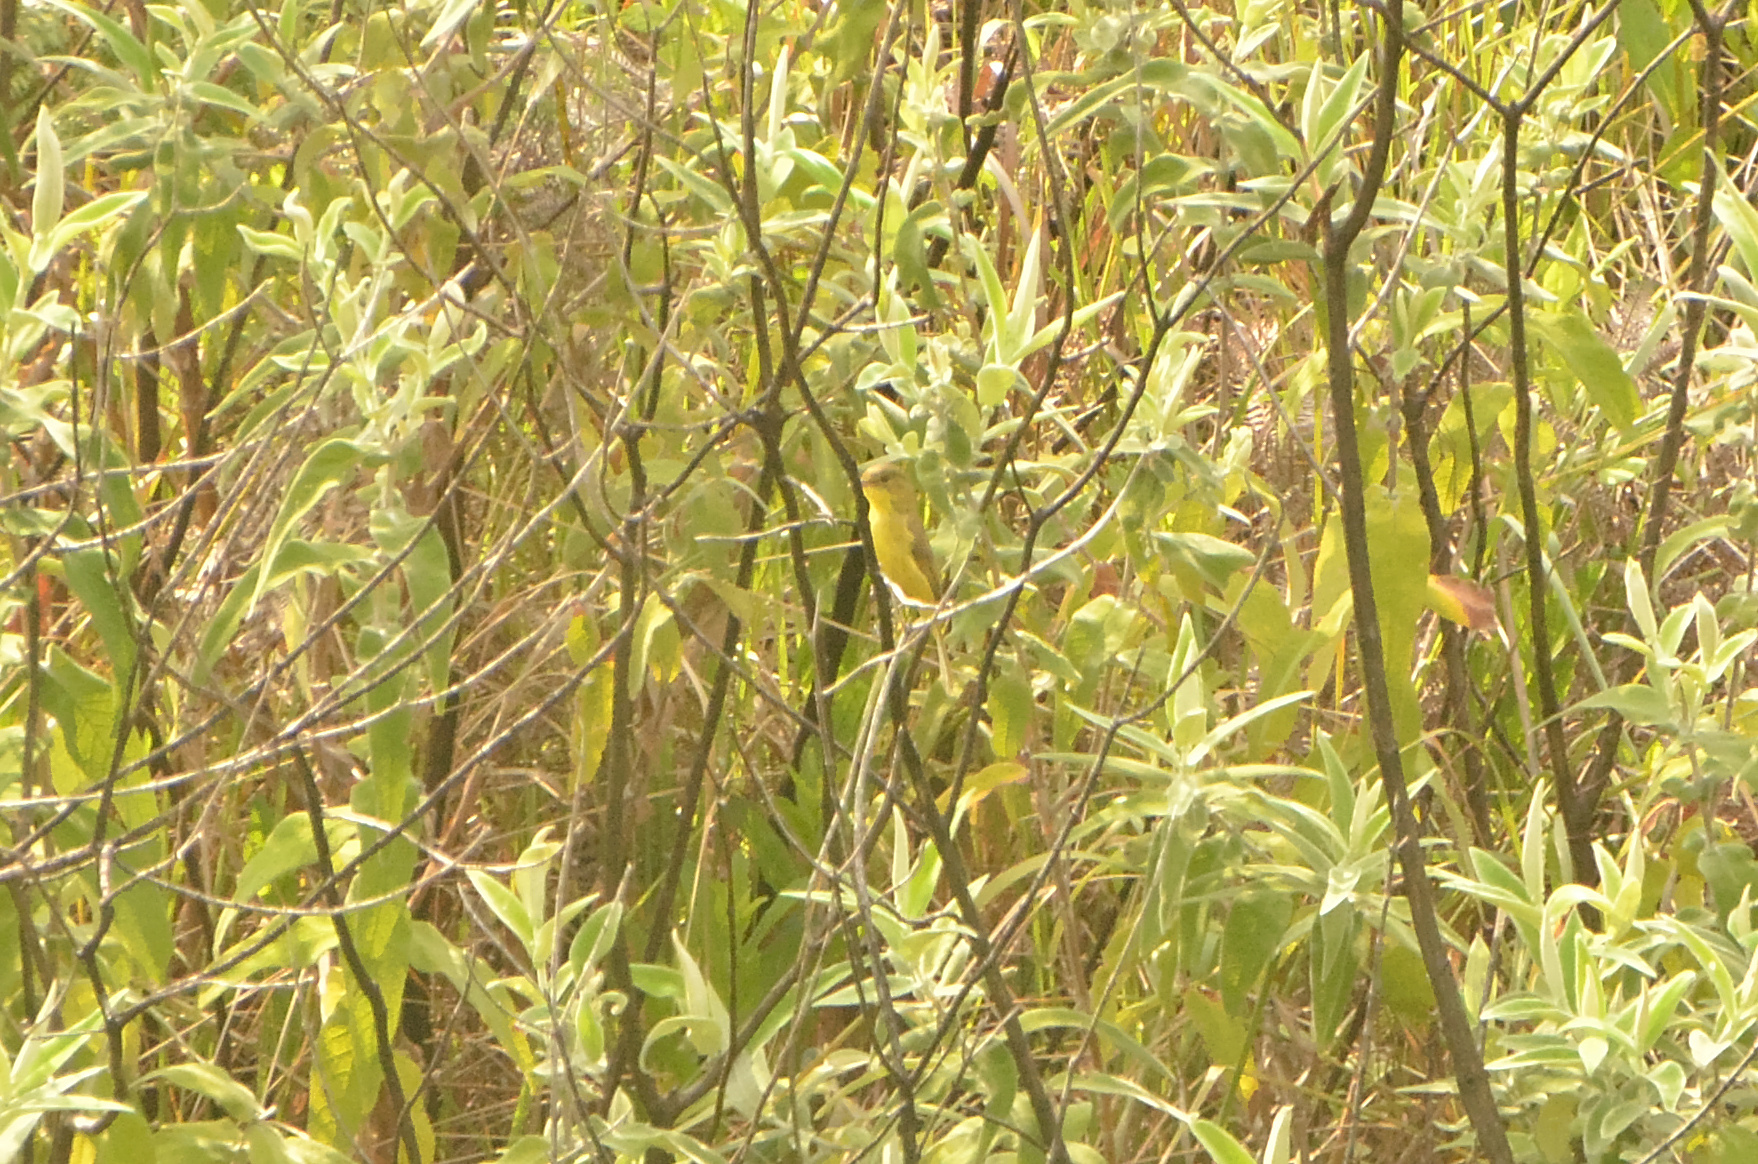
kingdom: Animalia
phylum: Chordata
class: Aves
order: Passeriformes
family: Acrocephalidae
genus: Iduna
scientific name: Iduna natalensis
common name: African yellow warbler
